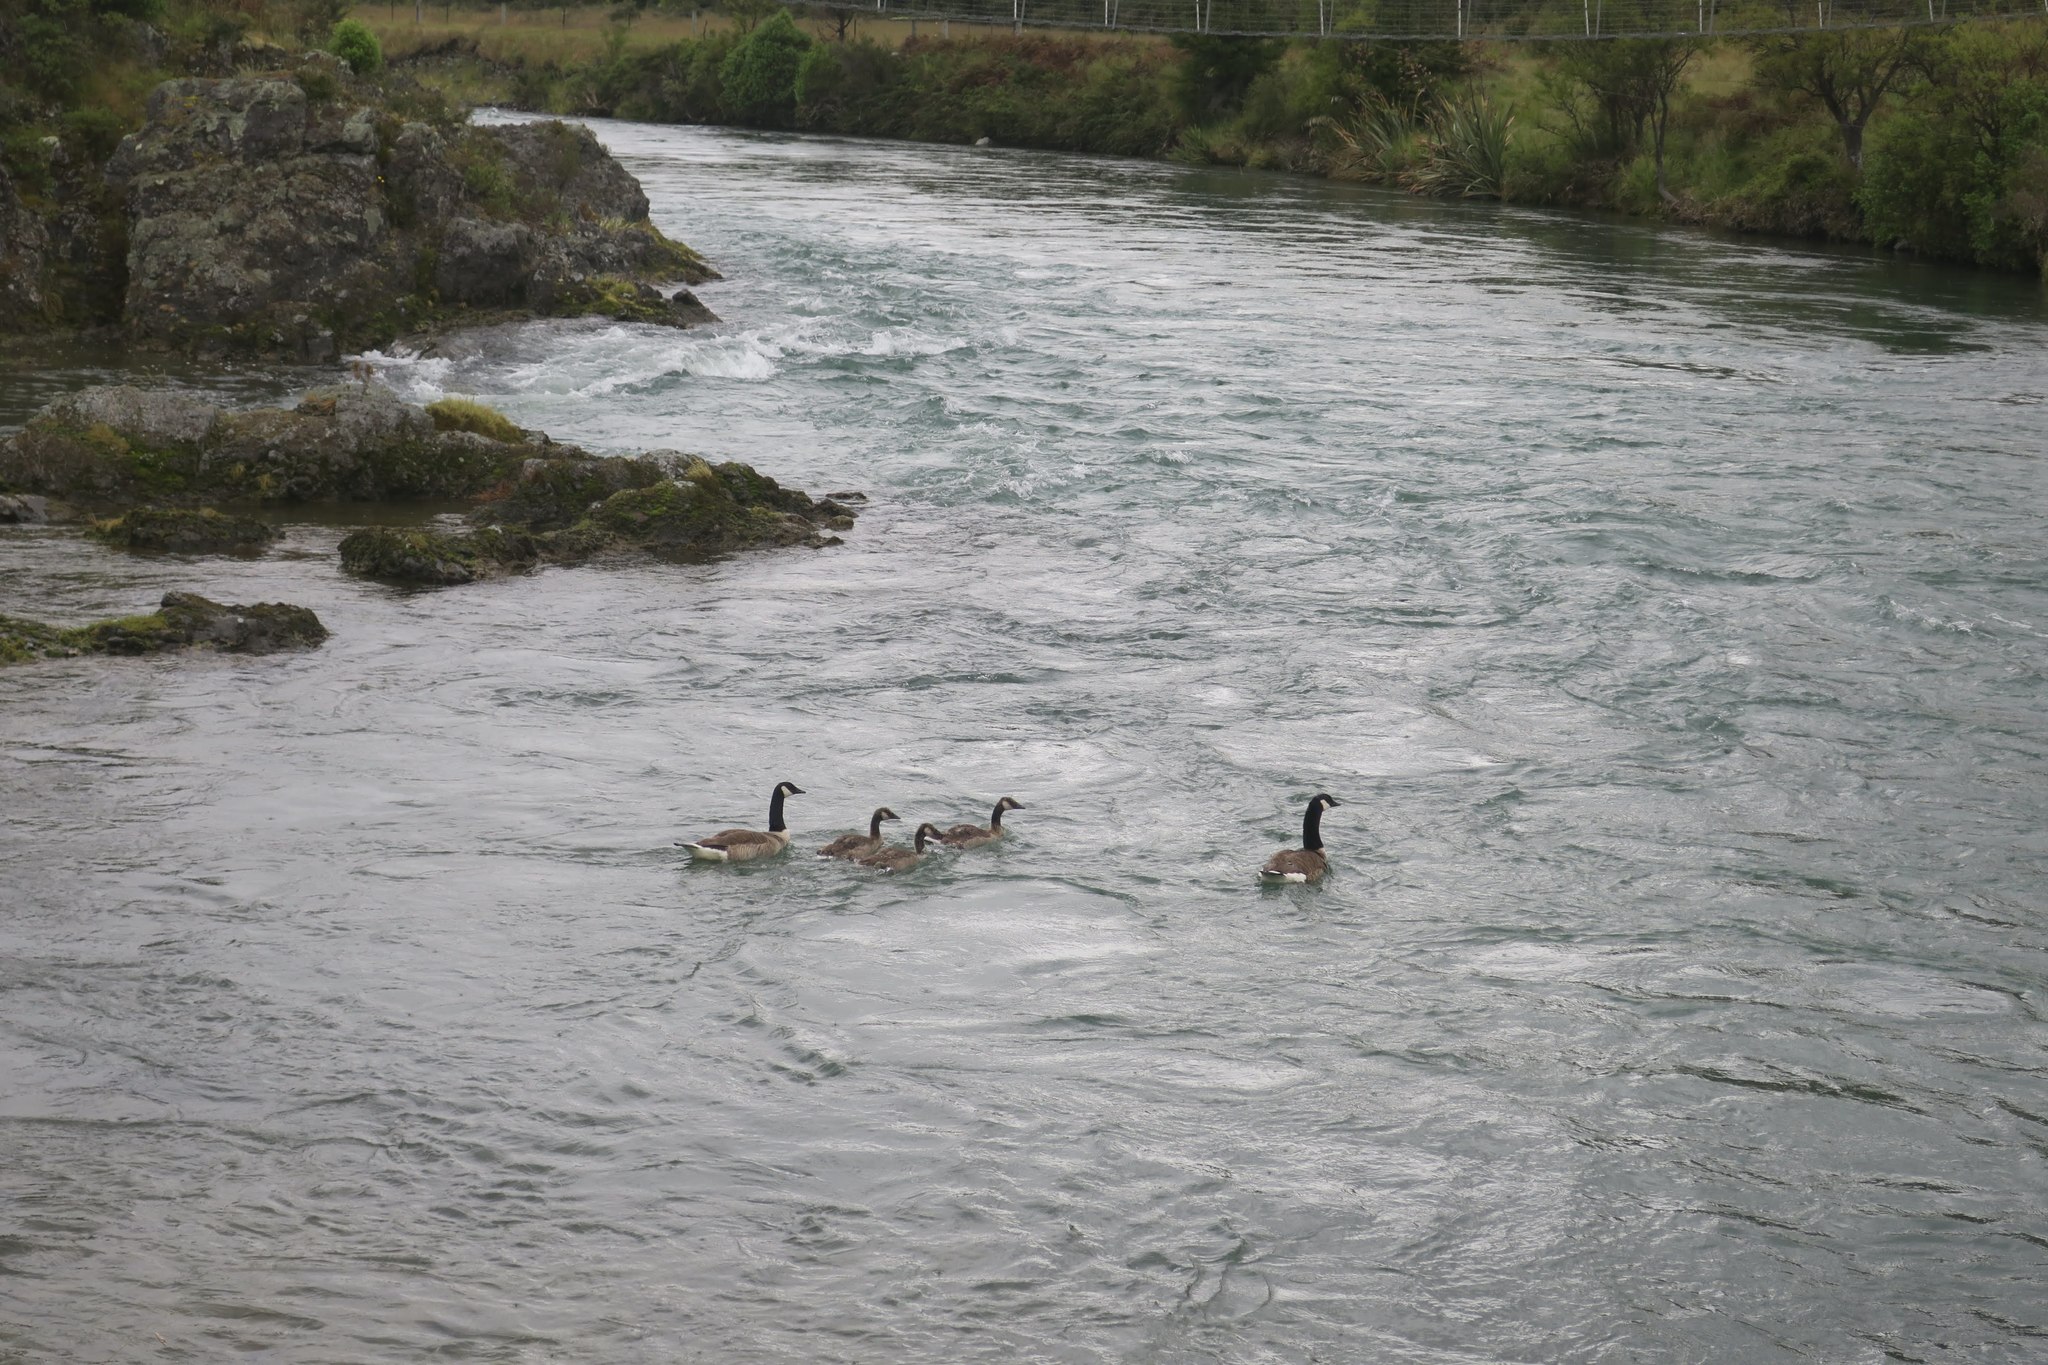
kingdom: Animalia
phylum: Chordata
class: Aves
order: Anseriformes
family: Anatidae
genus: Branta
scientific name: Branta canadensis
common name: Canada goose
